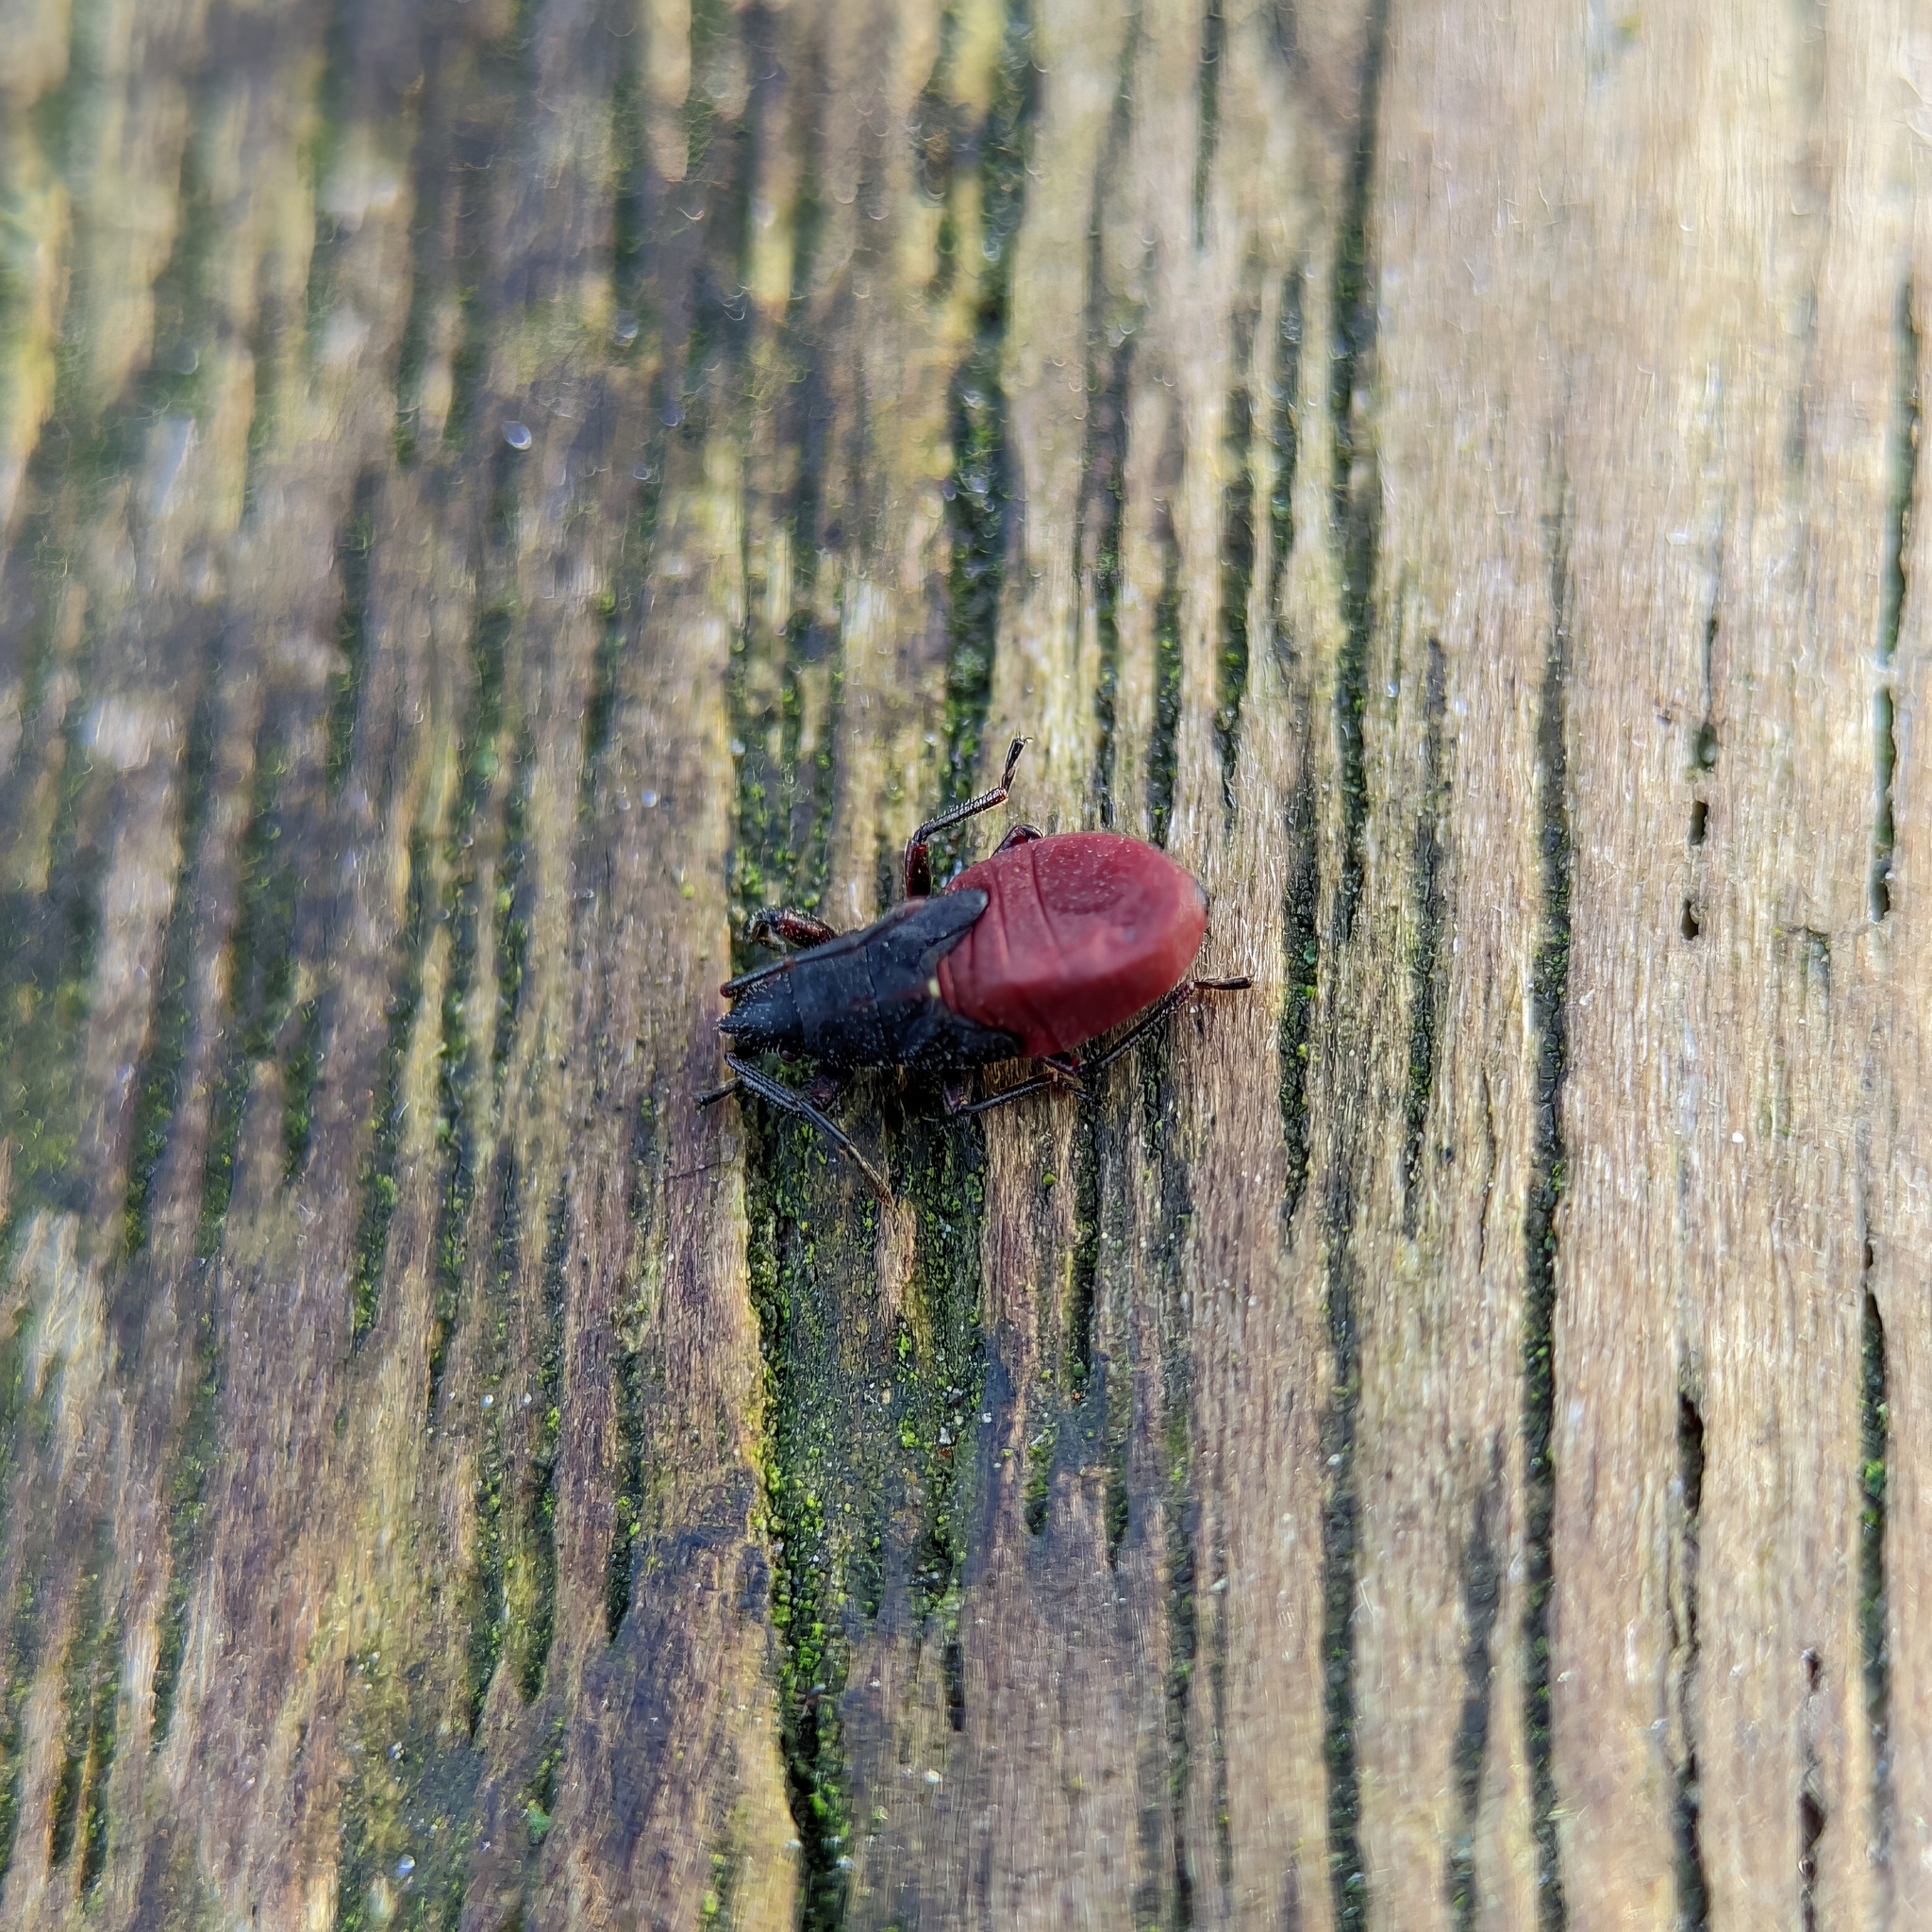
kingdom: Animalia
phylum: Arthropoda
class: Insecta
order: Hemiptera
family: Oxycarenidae
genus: Oxycarenus
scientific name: Oxycarenus lavaterae
